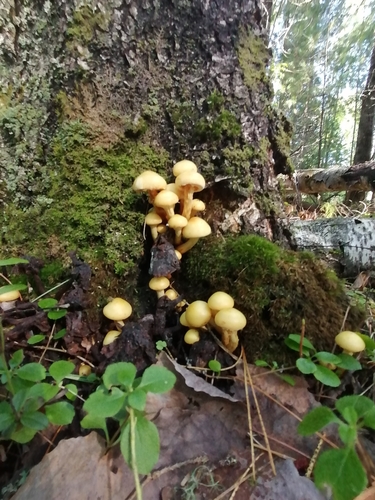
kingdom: Fungi
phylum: Basidiomycota
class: Agaricomycetes
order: Agaricales
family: Hymenogastraceae
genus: Flammula
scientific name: Flammula alnicola
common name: Alder scalycap
